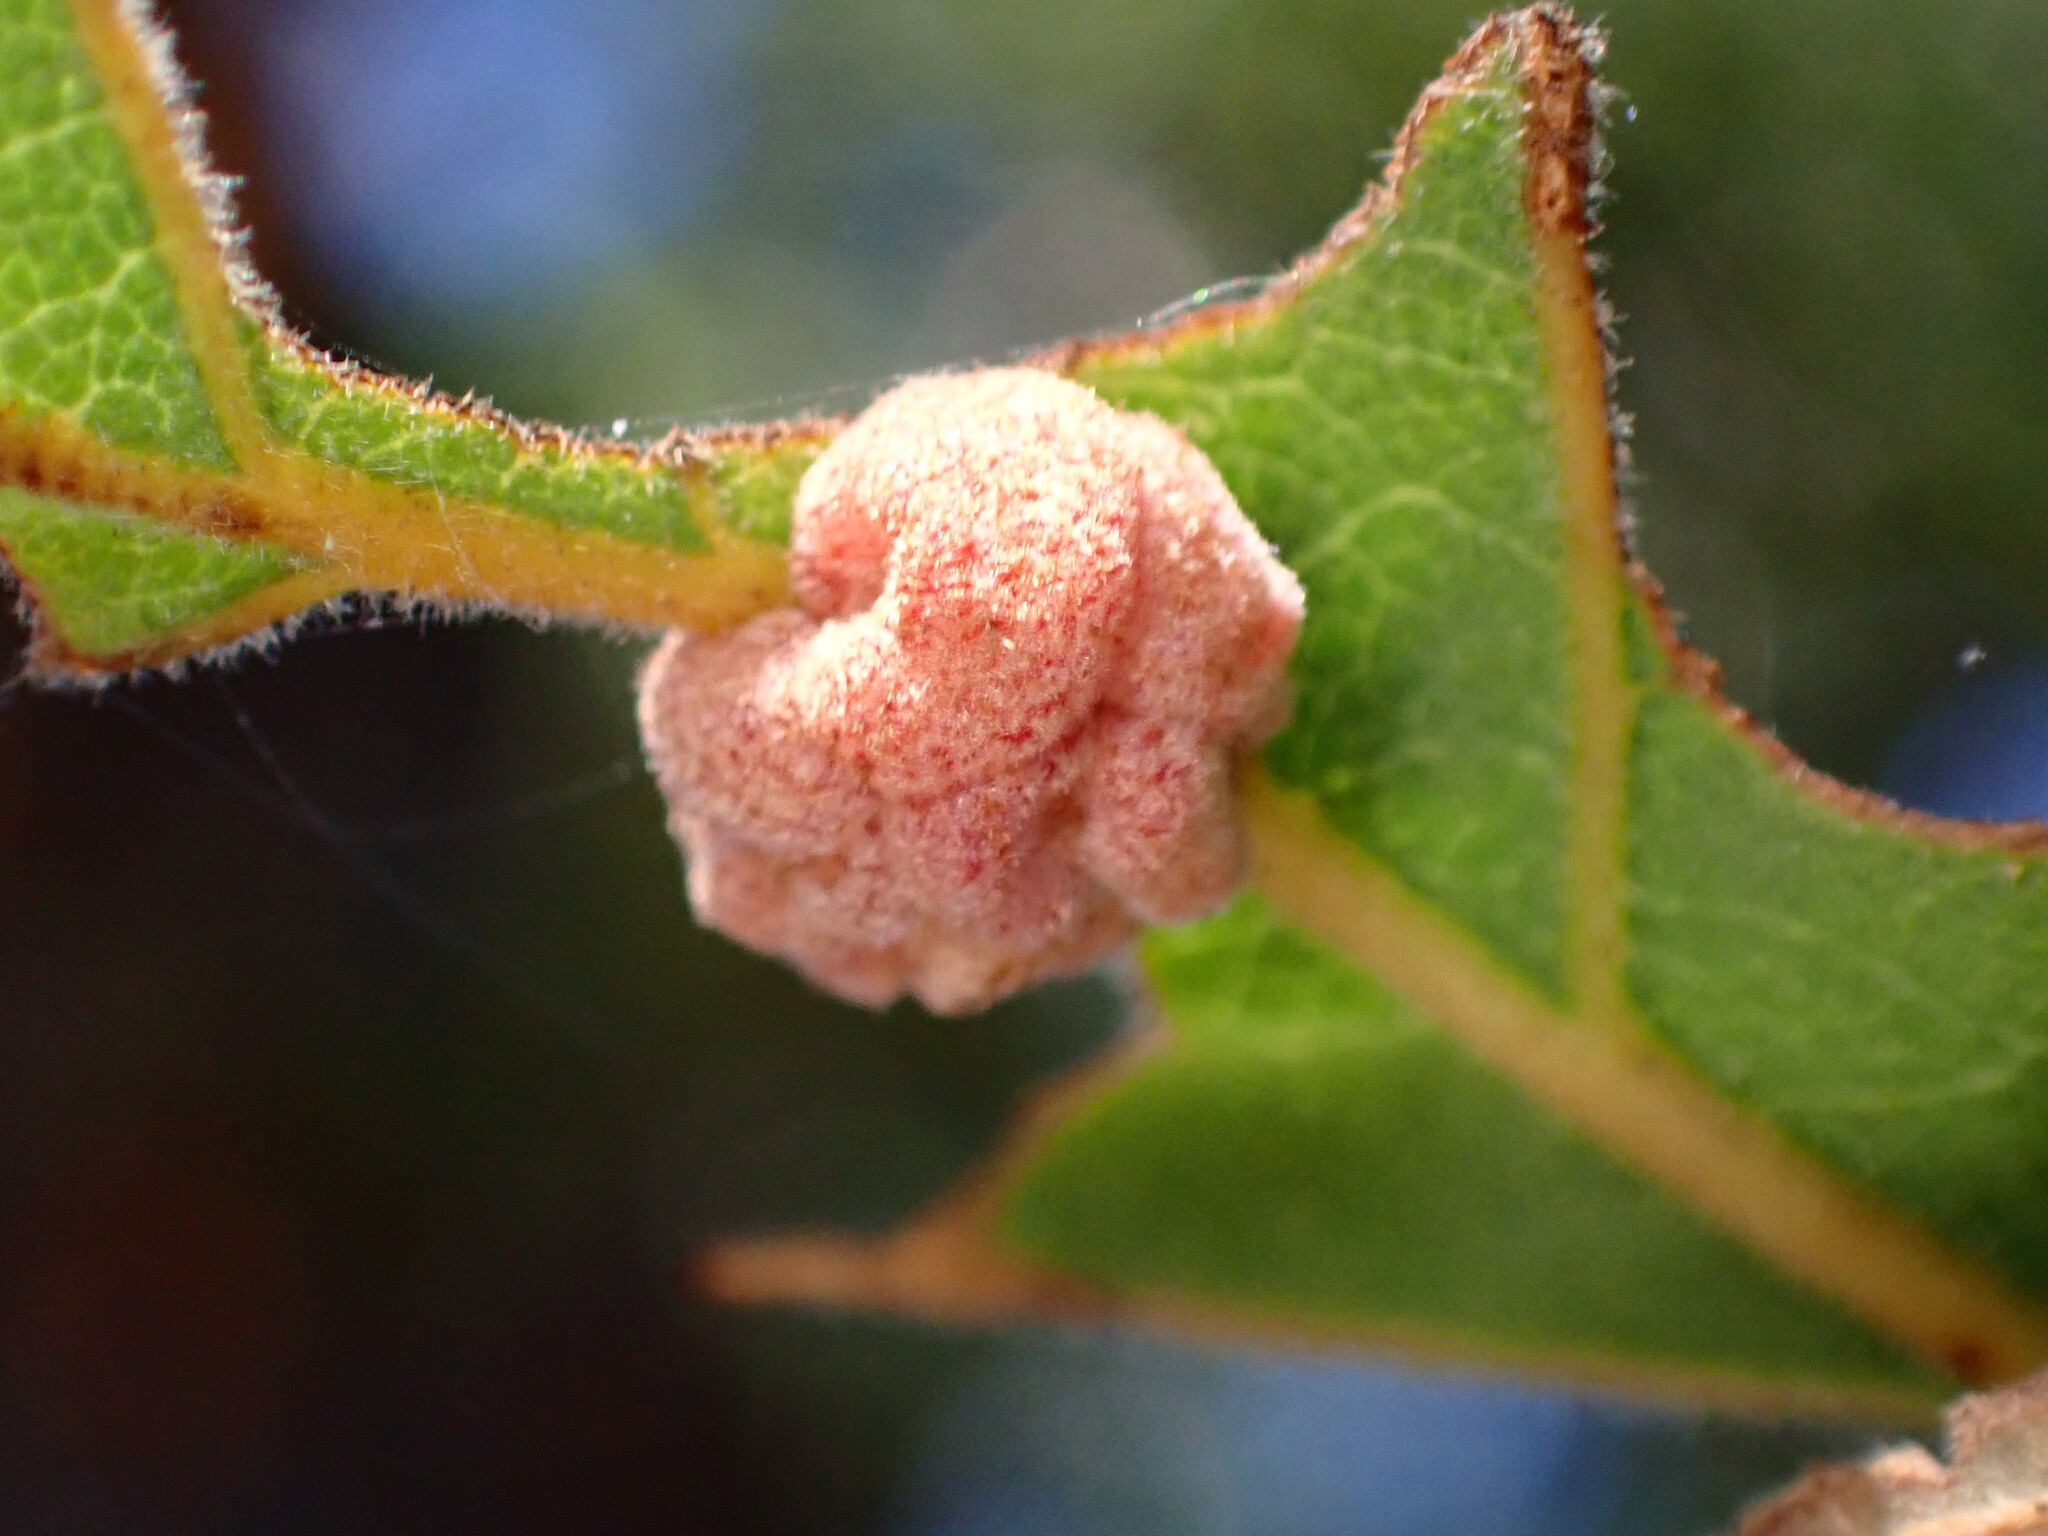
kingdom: Animalia
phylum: Arthropoda
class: Insecta
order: Hymenoptera
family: Cynipidae
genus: Andricus
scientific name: Andricus
